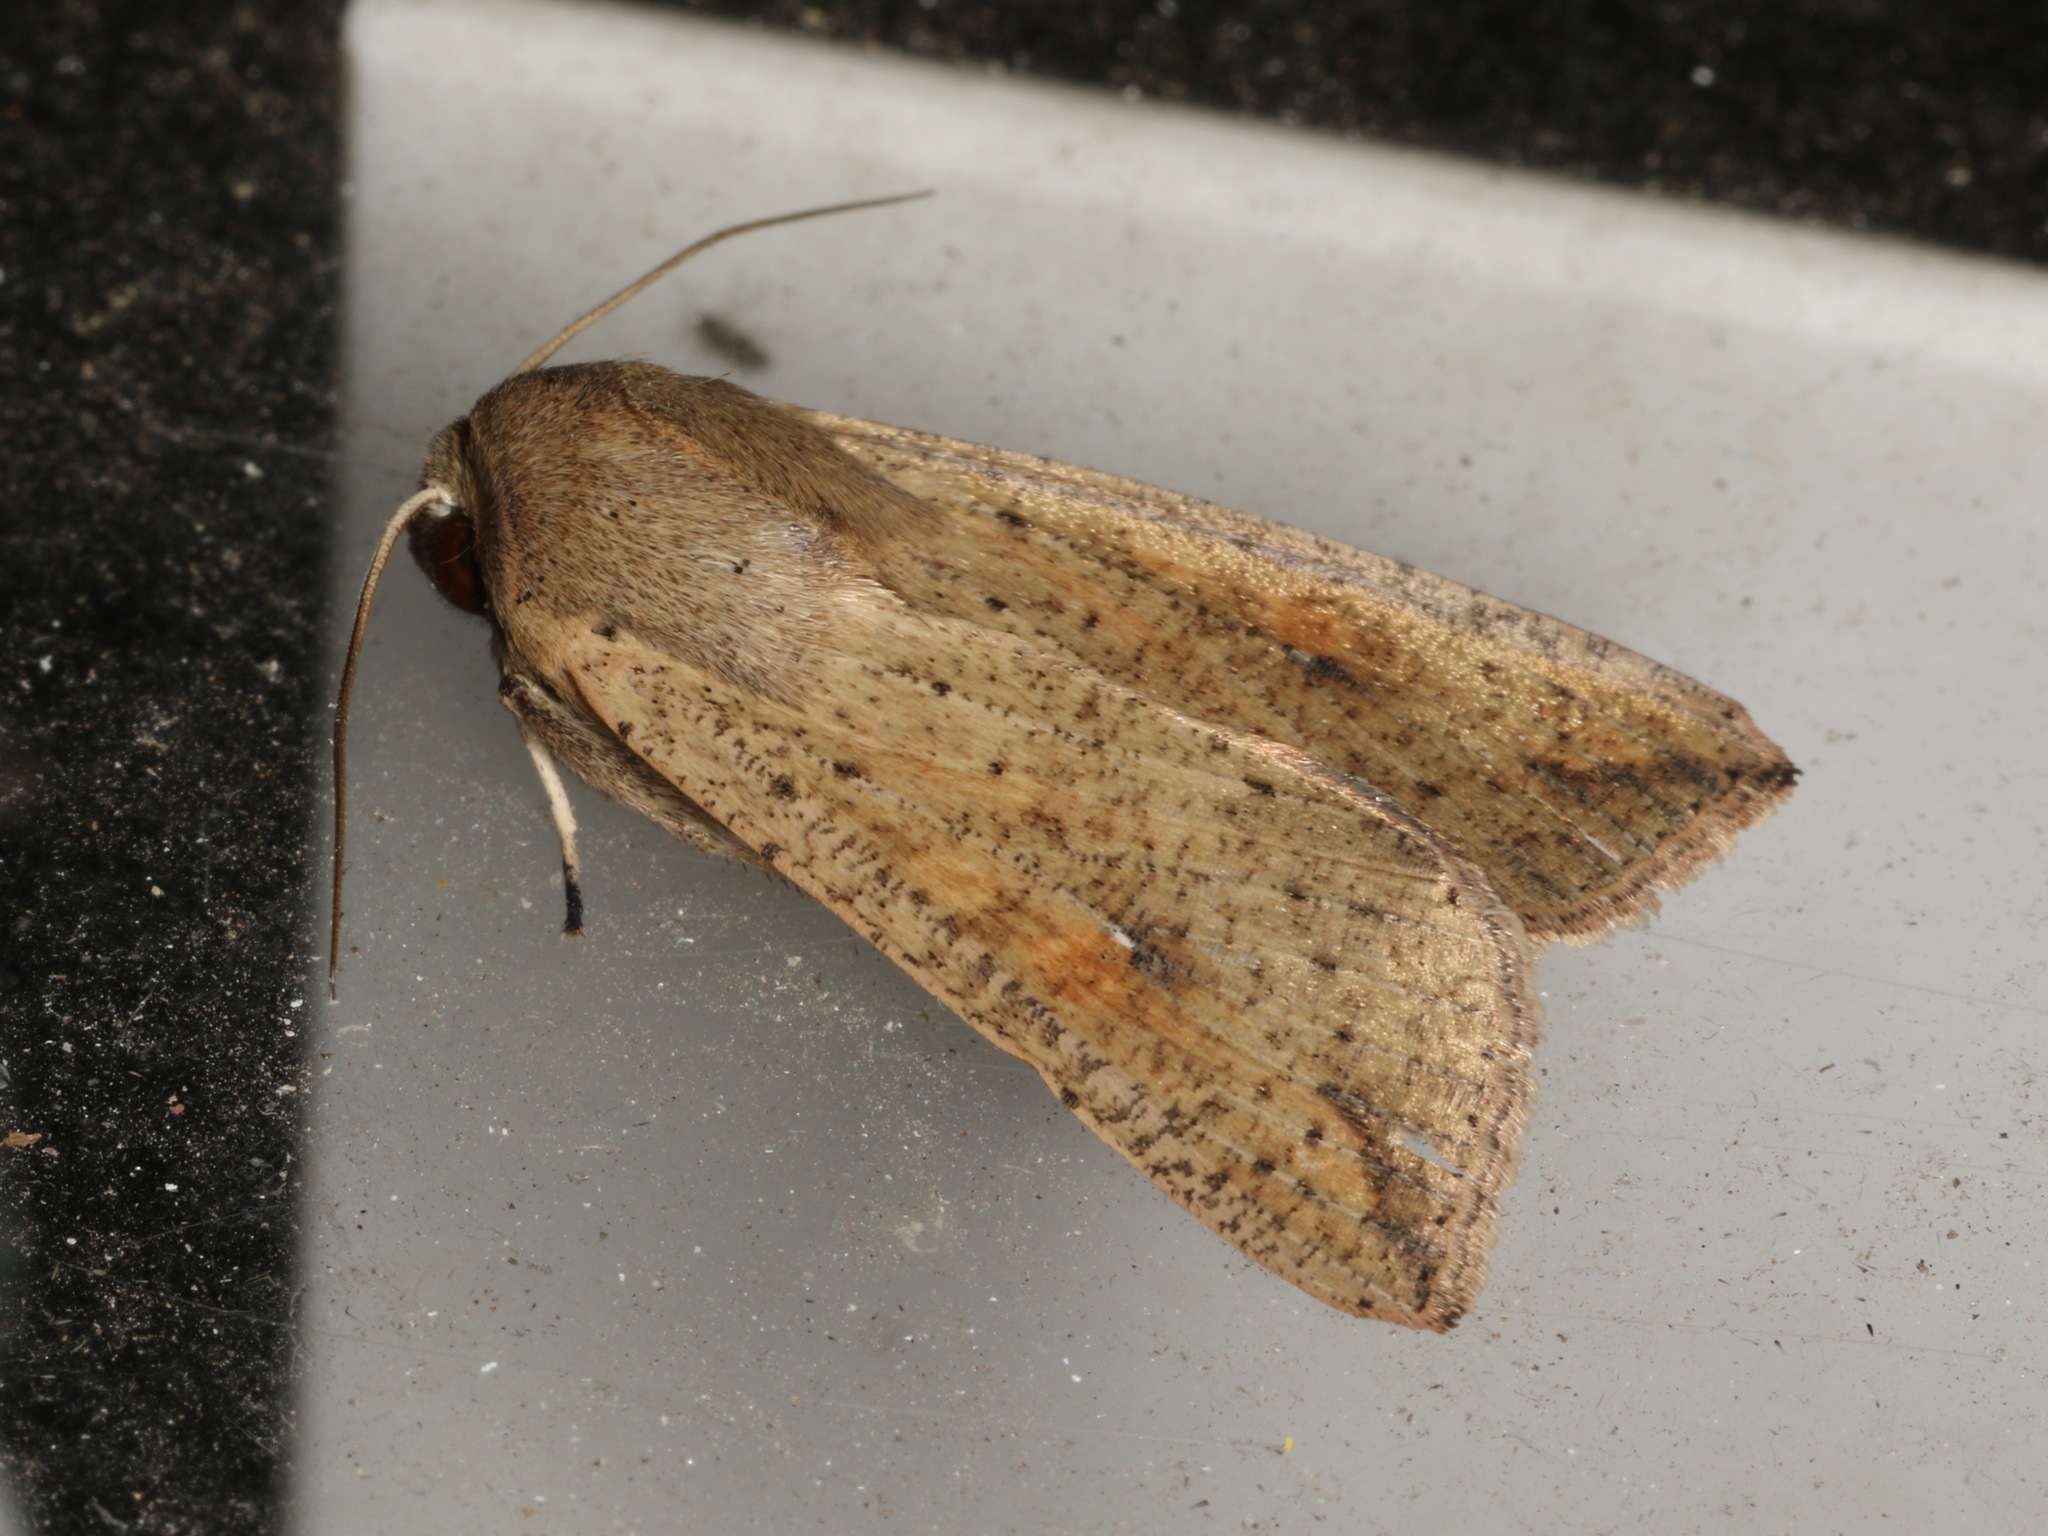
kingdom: Animalia
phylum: Arthropoda
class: Insecta
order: Lepidoptera
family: Noctuidae
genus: Mythimna
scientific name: Mythimna convecta
